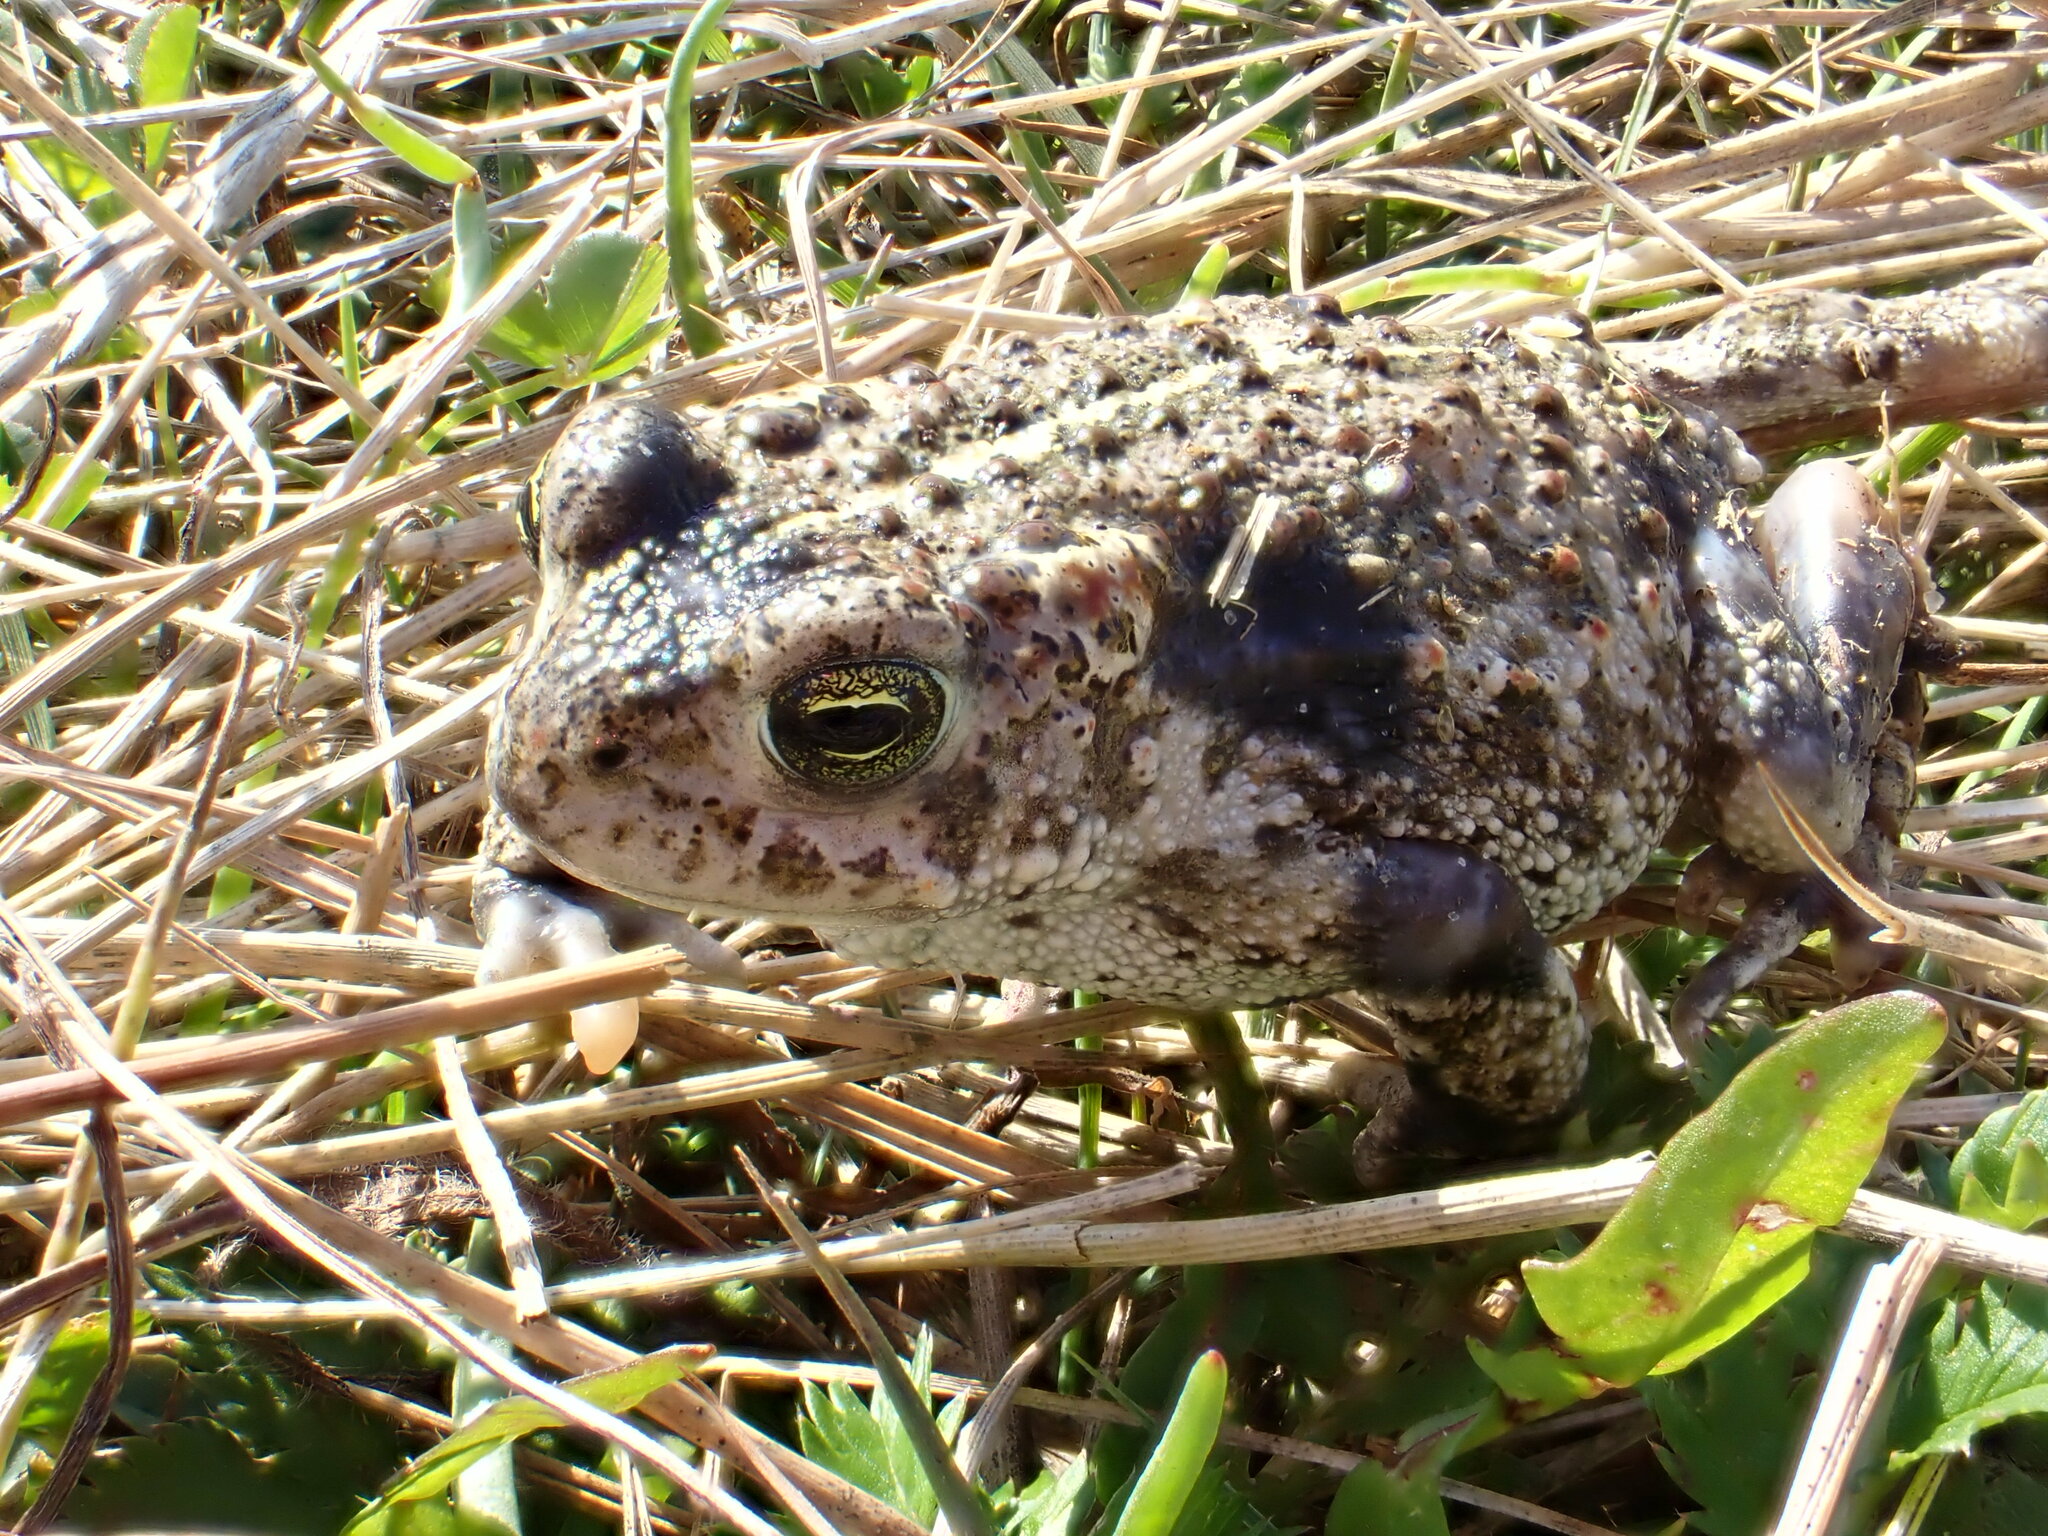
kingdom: Animalia
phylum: Chordata
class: Amphibia
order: Anura
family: Bufonidae
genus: Epidalea
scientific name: Epidalea calamita
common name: Natterjack toad
